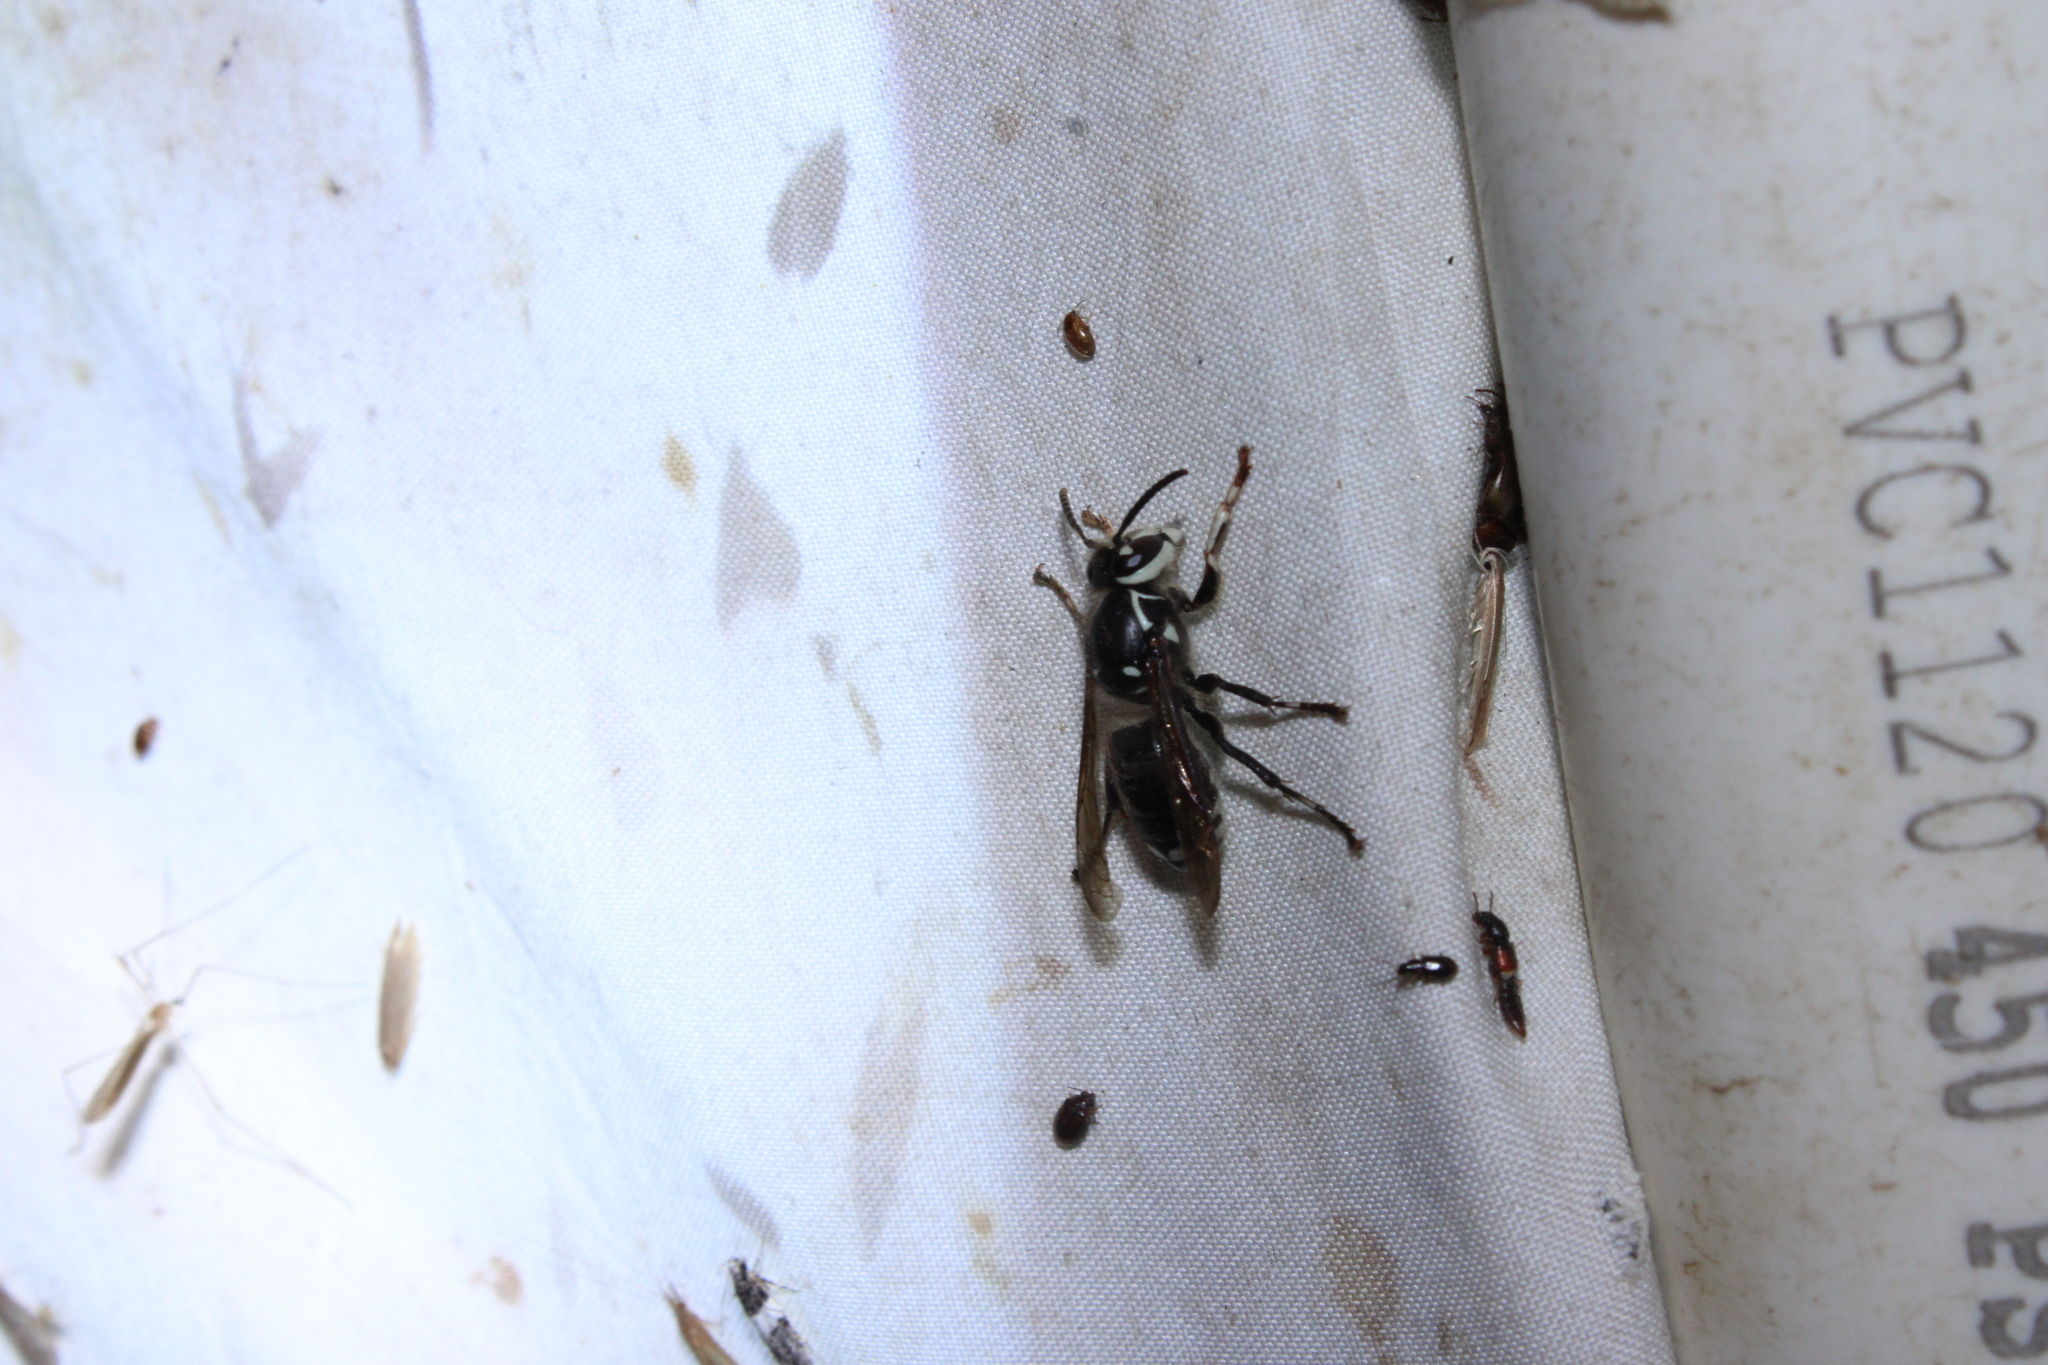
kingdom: Animalia
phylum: Arthropoda
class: Insecta
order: Hymenoptera
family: Vespidae
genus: Dolichovespula
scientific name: Dolichovespula maculata
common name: Bald-faced hornet
